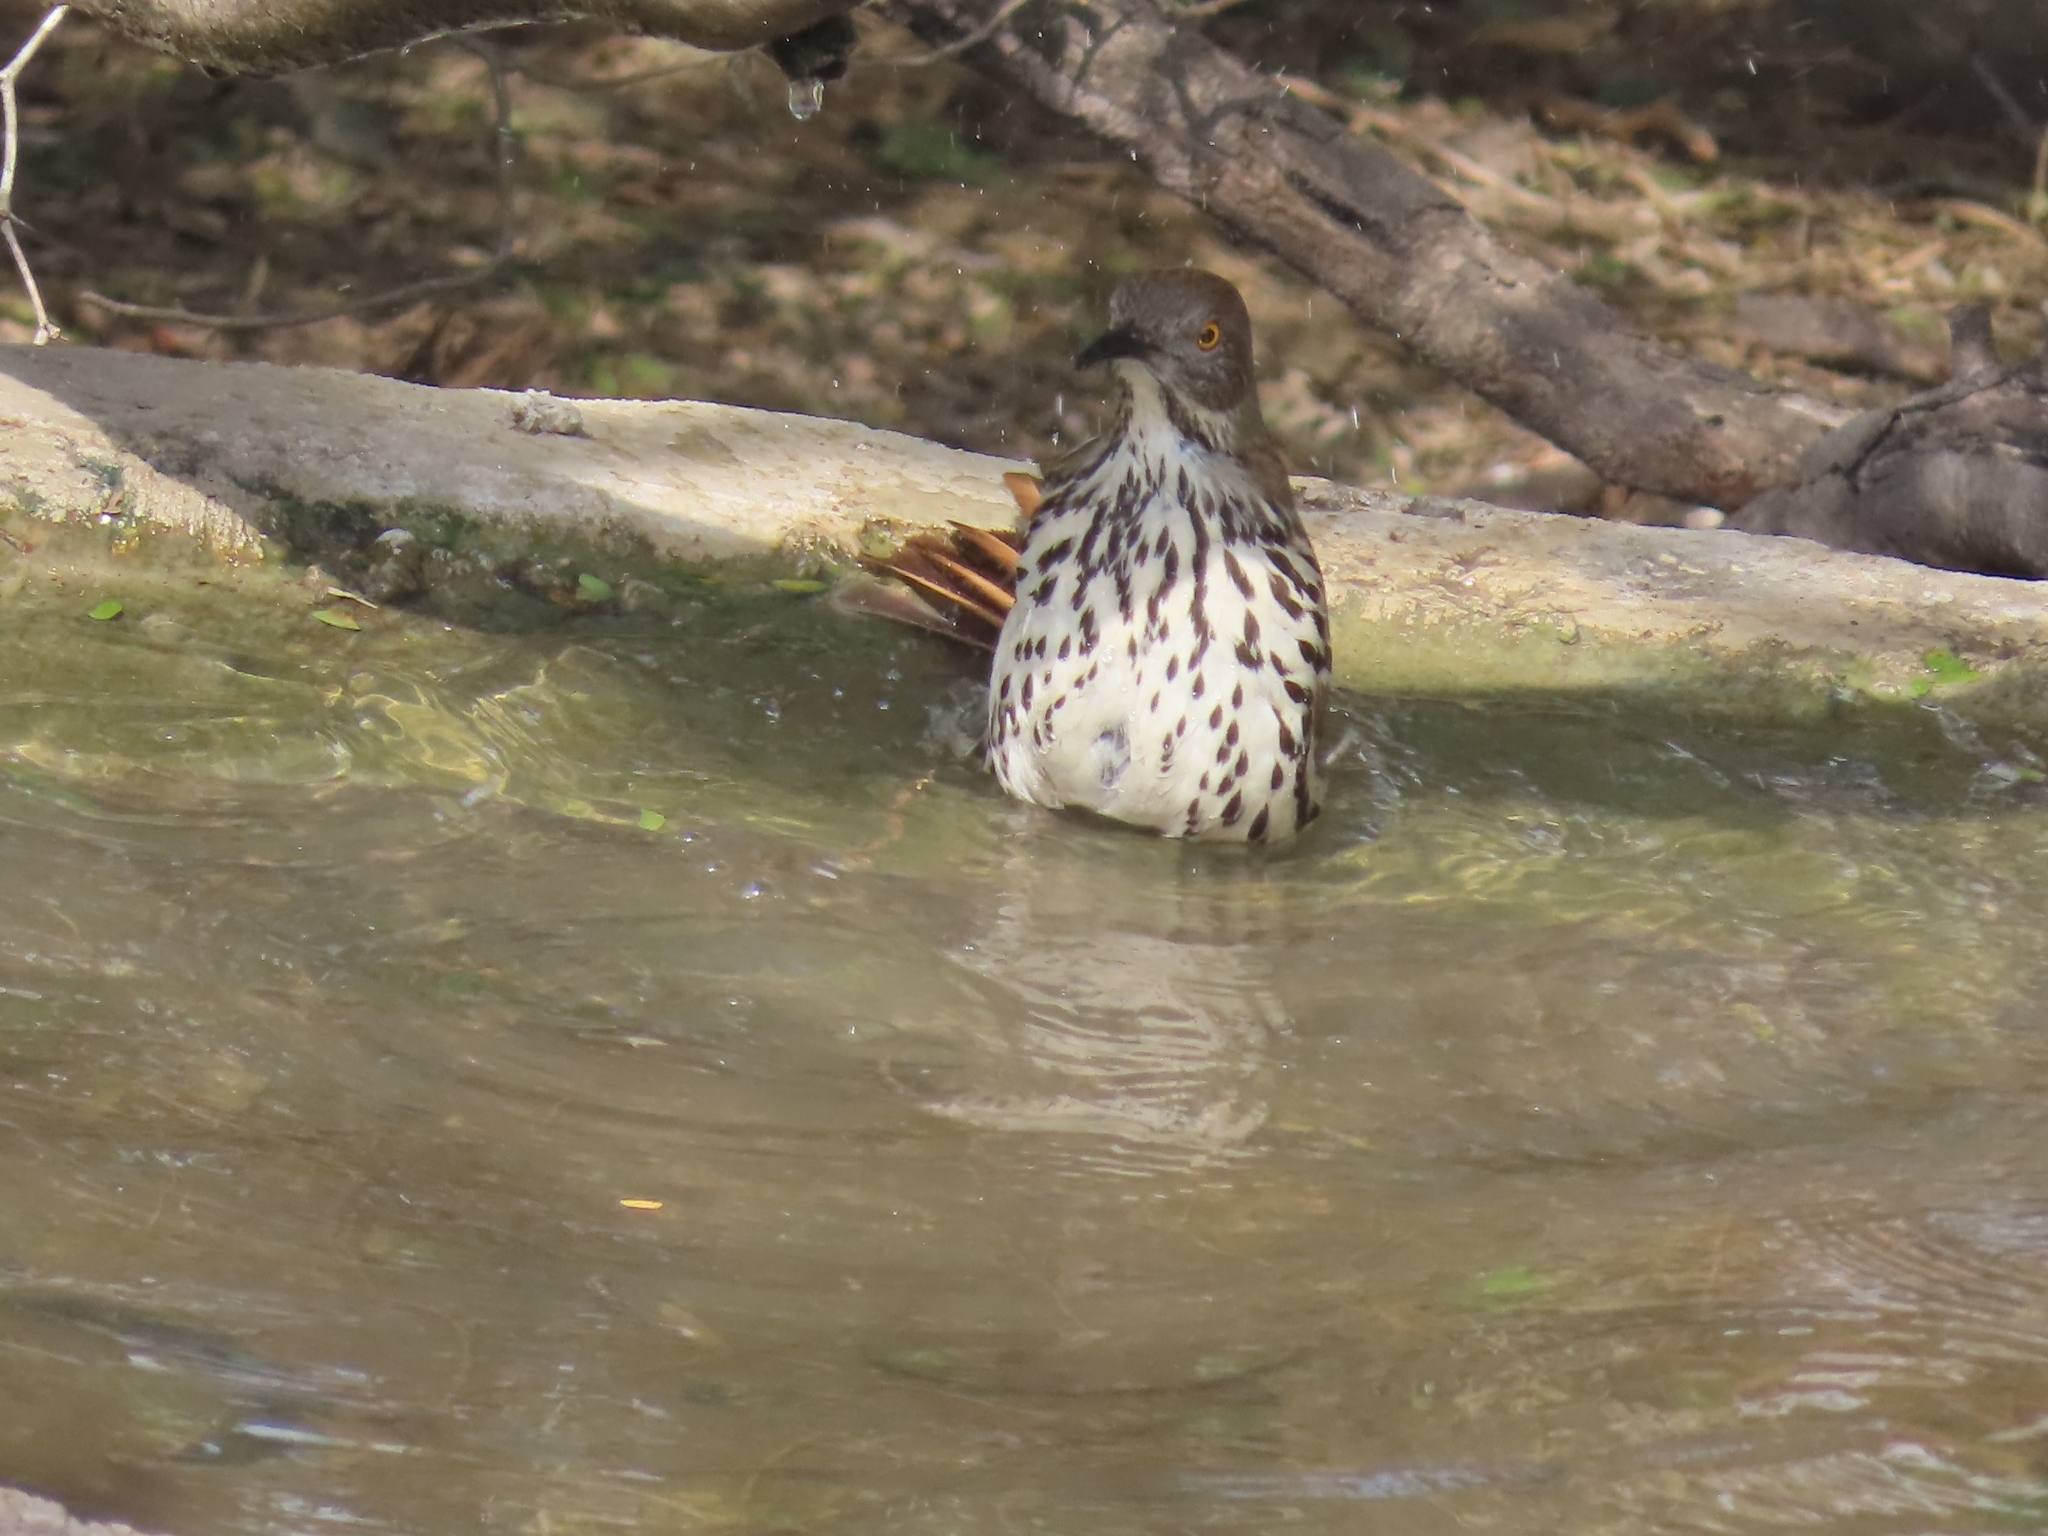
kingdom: Animalia
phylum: Chordata
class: Aves
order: Passeriformes
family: Mimidae
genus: Toxostoma
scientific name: Toxostoma longirostre
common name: Long-billed thrasher
